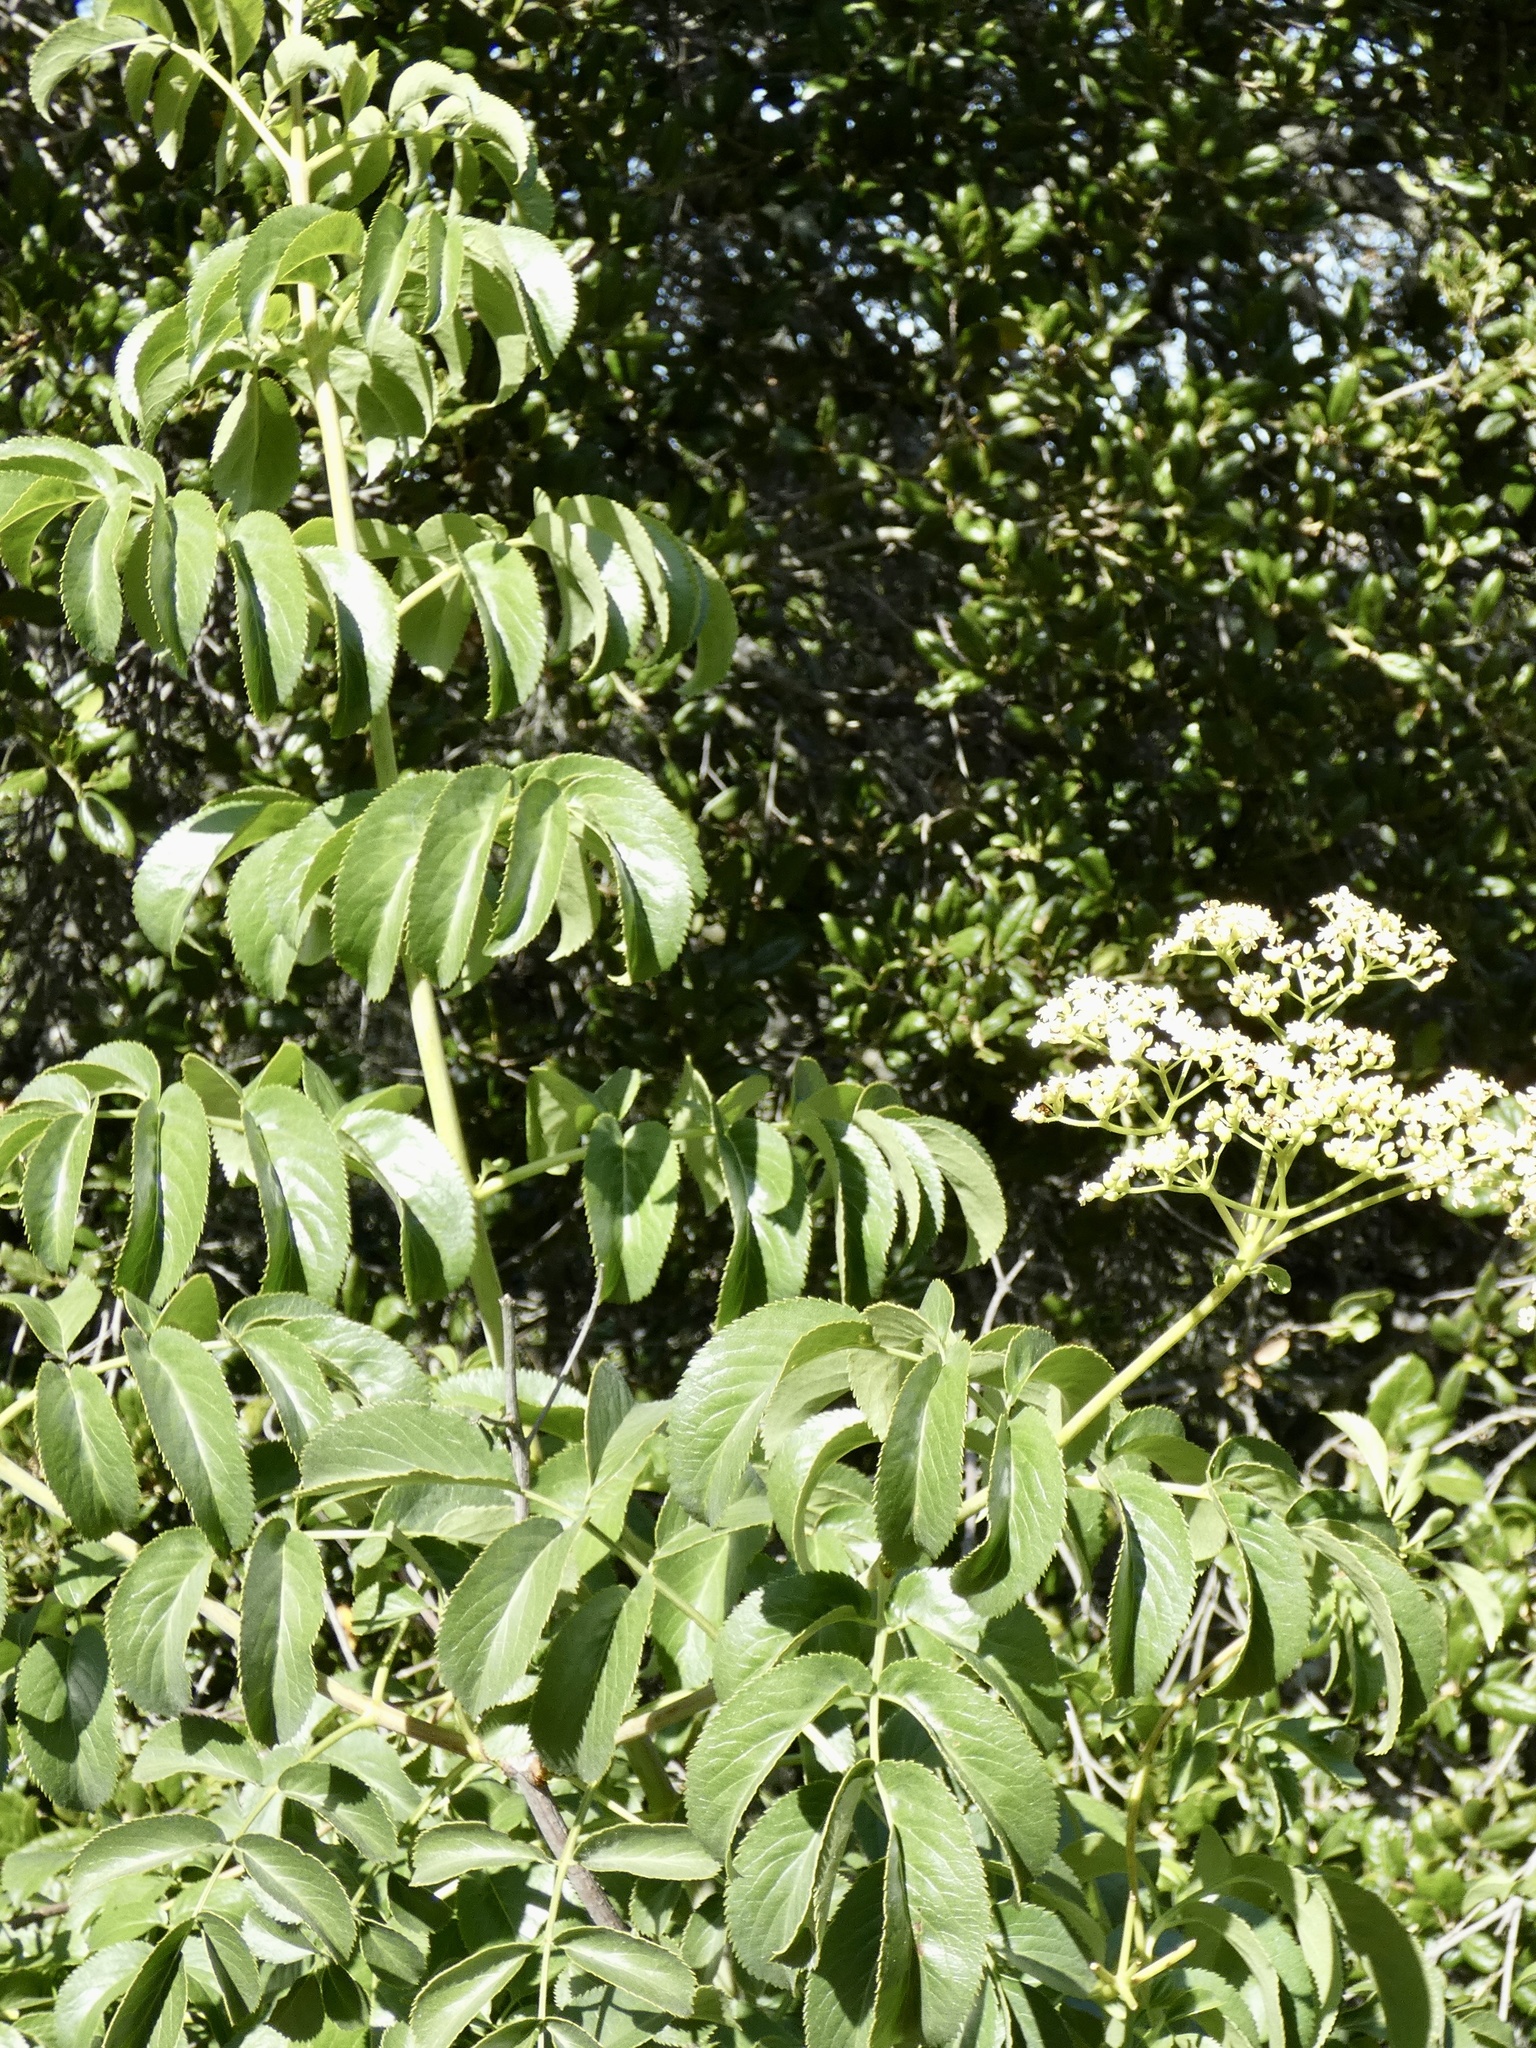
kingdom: Plantae
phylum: Tracheophyta
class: Magnoliopsida
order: Dipsacales
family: Viburnaceae
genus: Sambucus
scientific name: Sambucus cerulea
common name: Blue elder
